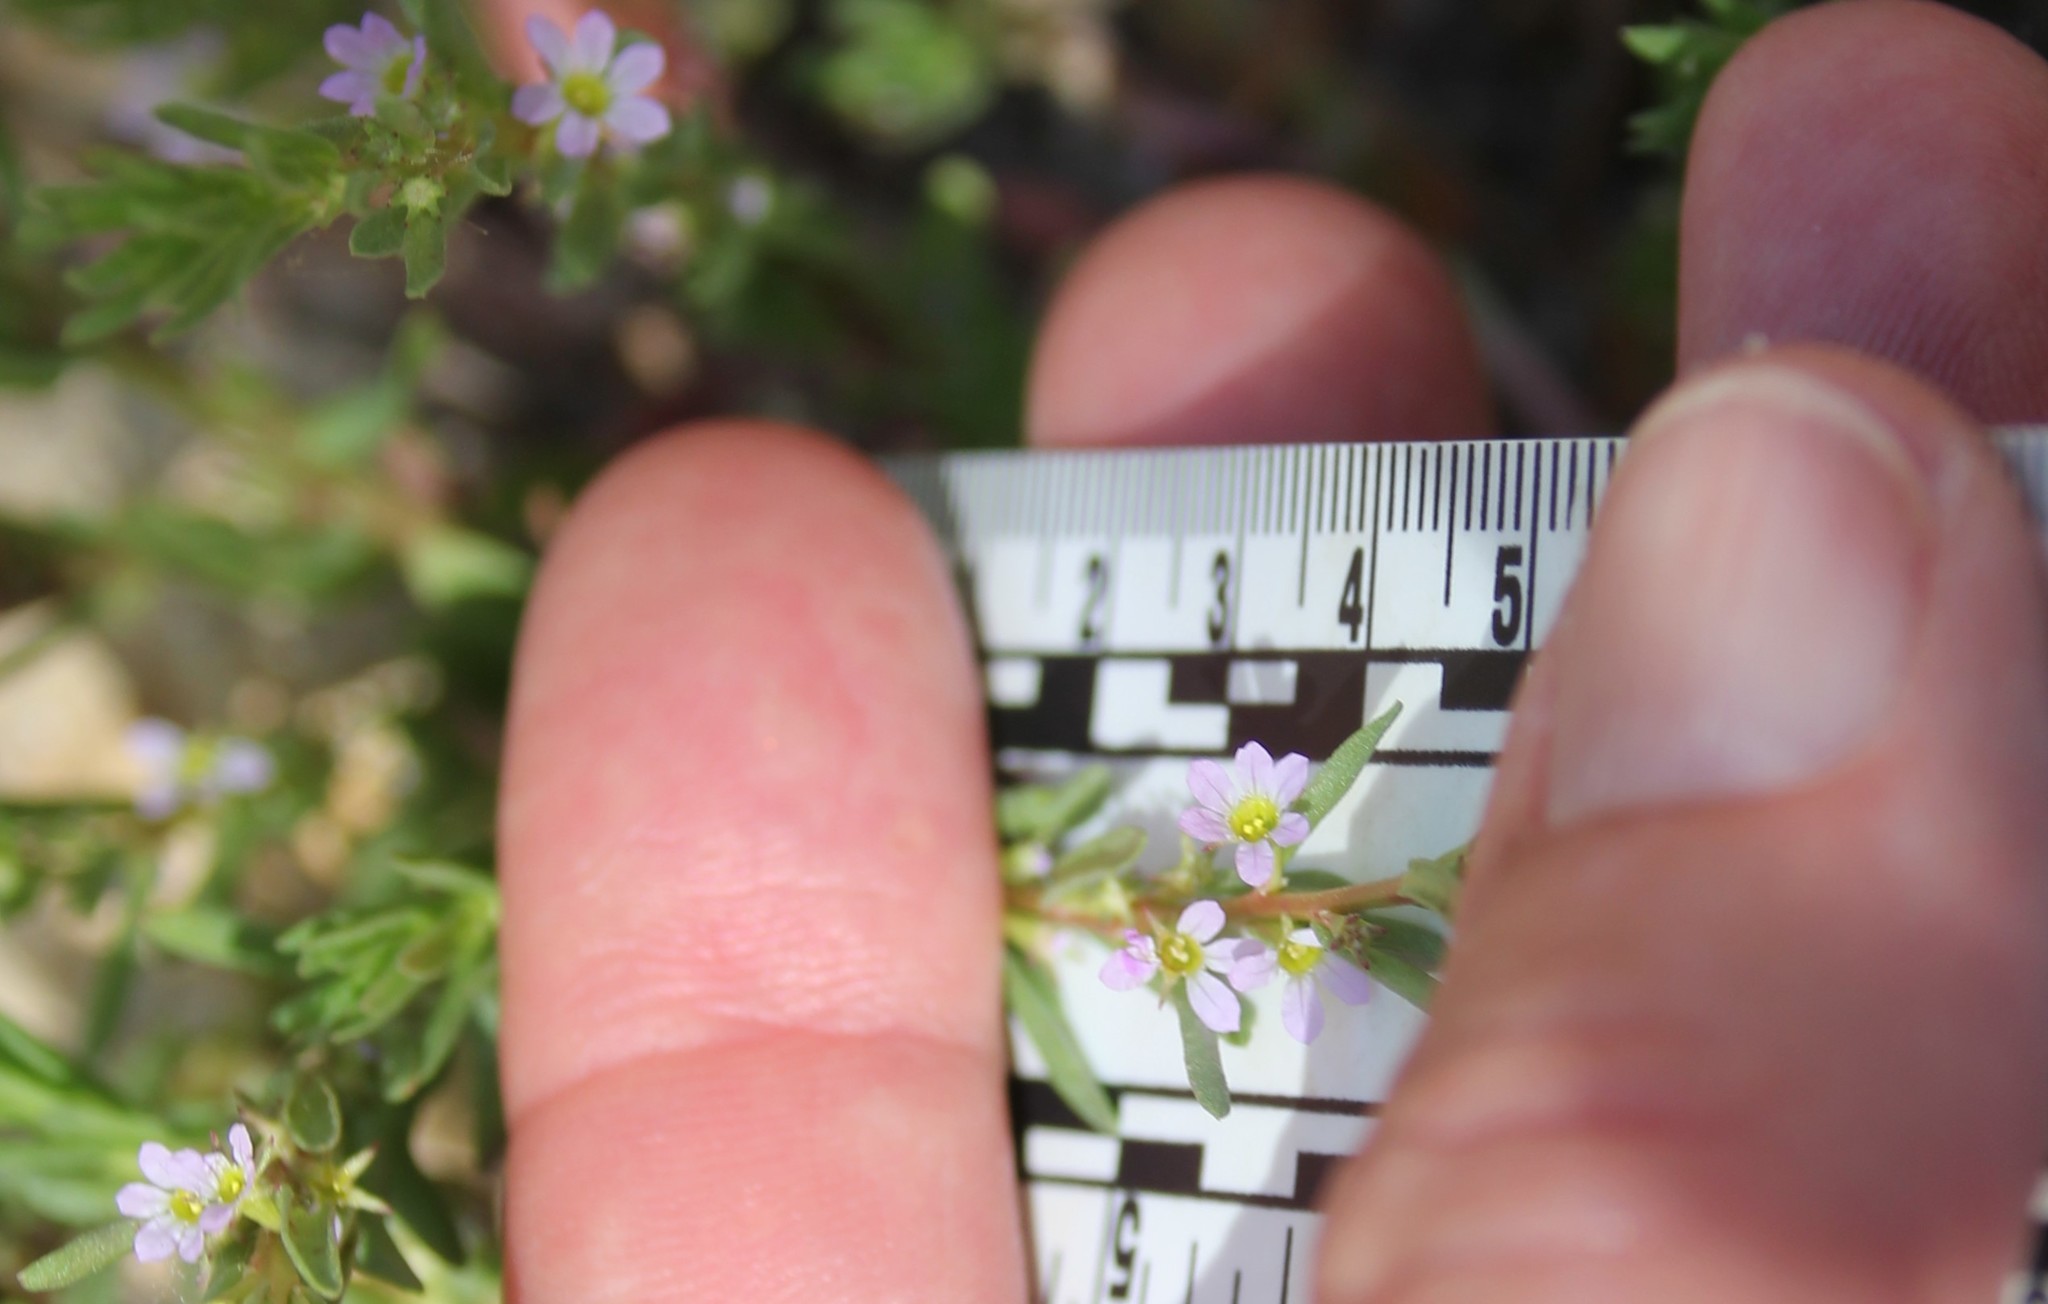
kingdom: Plantae
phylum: Tracheophyta
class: Magnoliopsida
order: Myrtales
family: Lythraceae
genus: Lythrum
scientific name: Lythrum hyssopifolia
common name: Grass-poly
